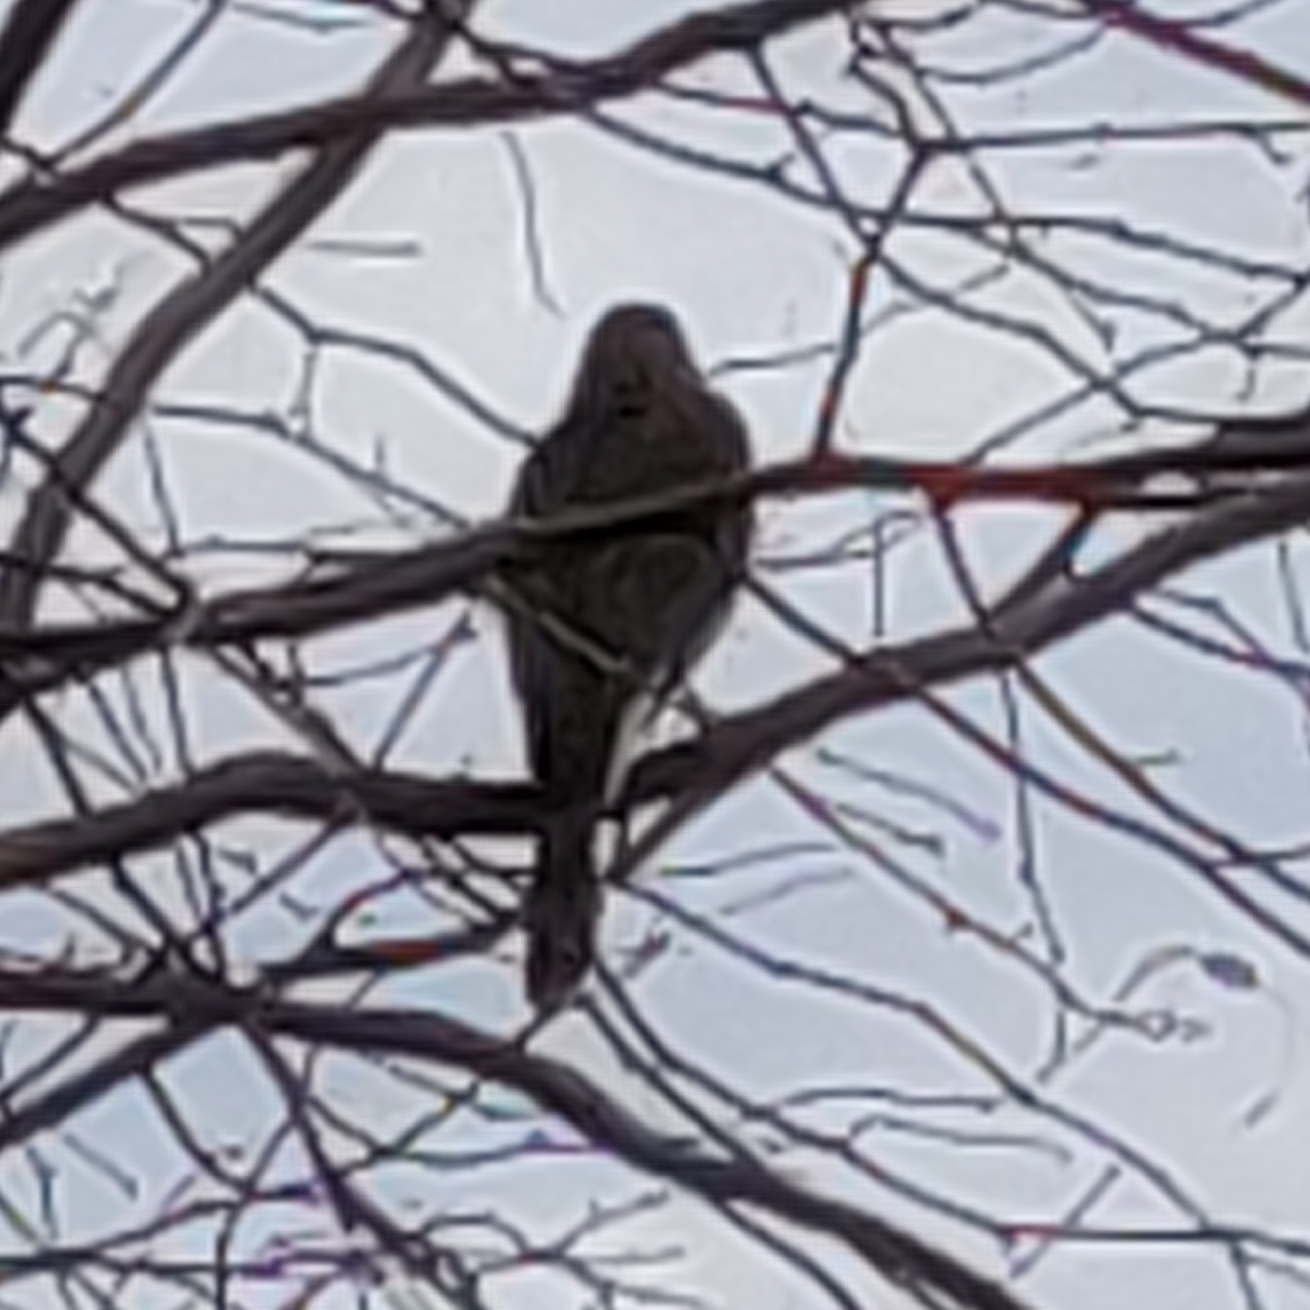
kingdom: Animalia
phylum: Chordata
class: Aves
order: Accipitriformes
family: Accipitridae
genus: Accipiter
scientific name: Accipiter
